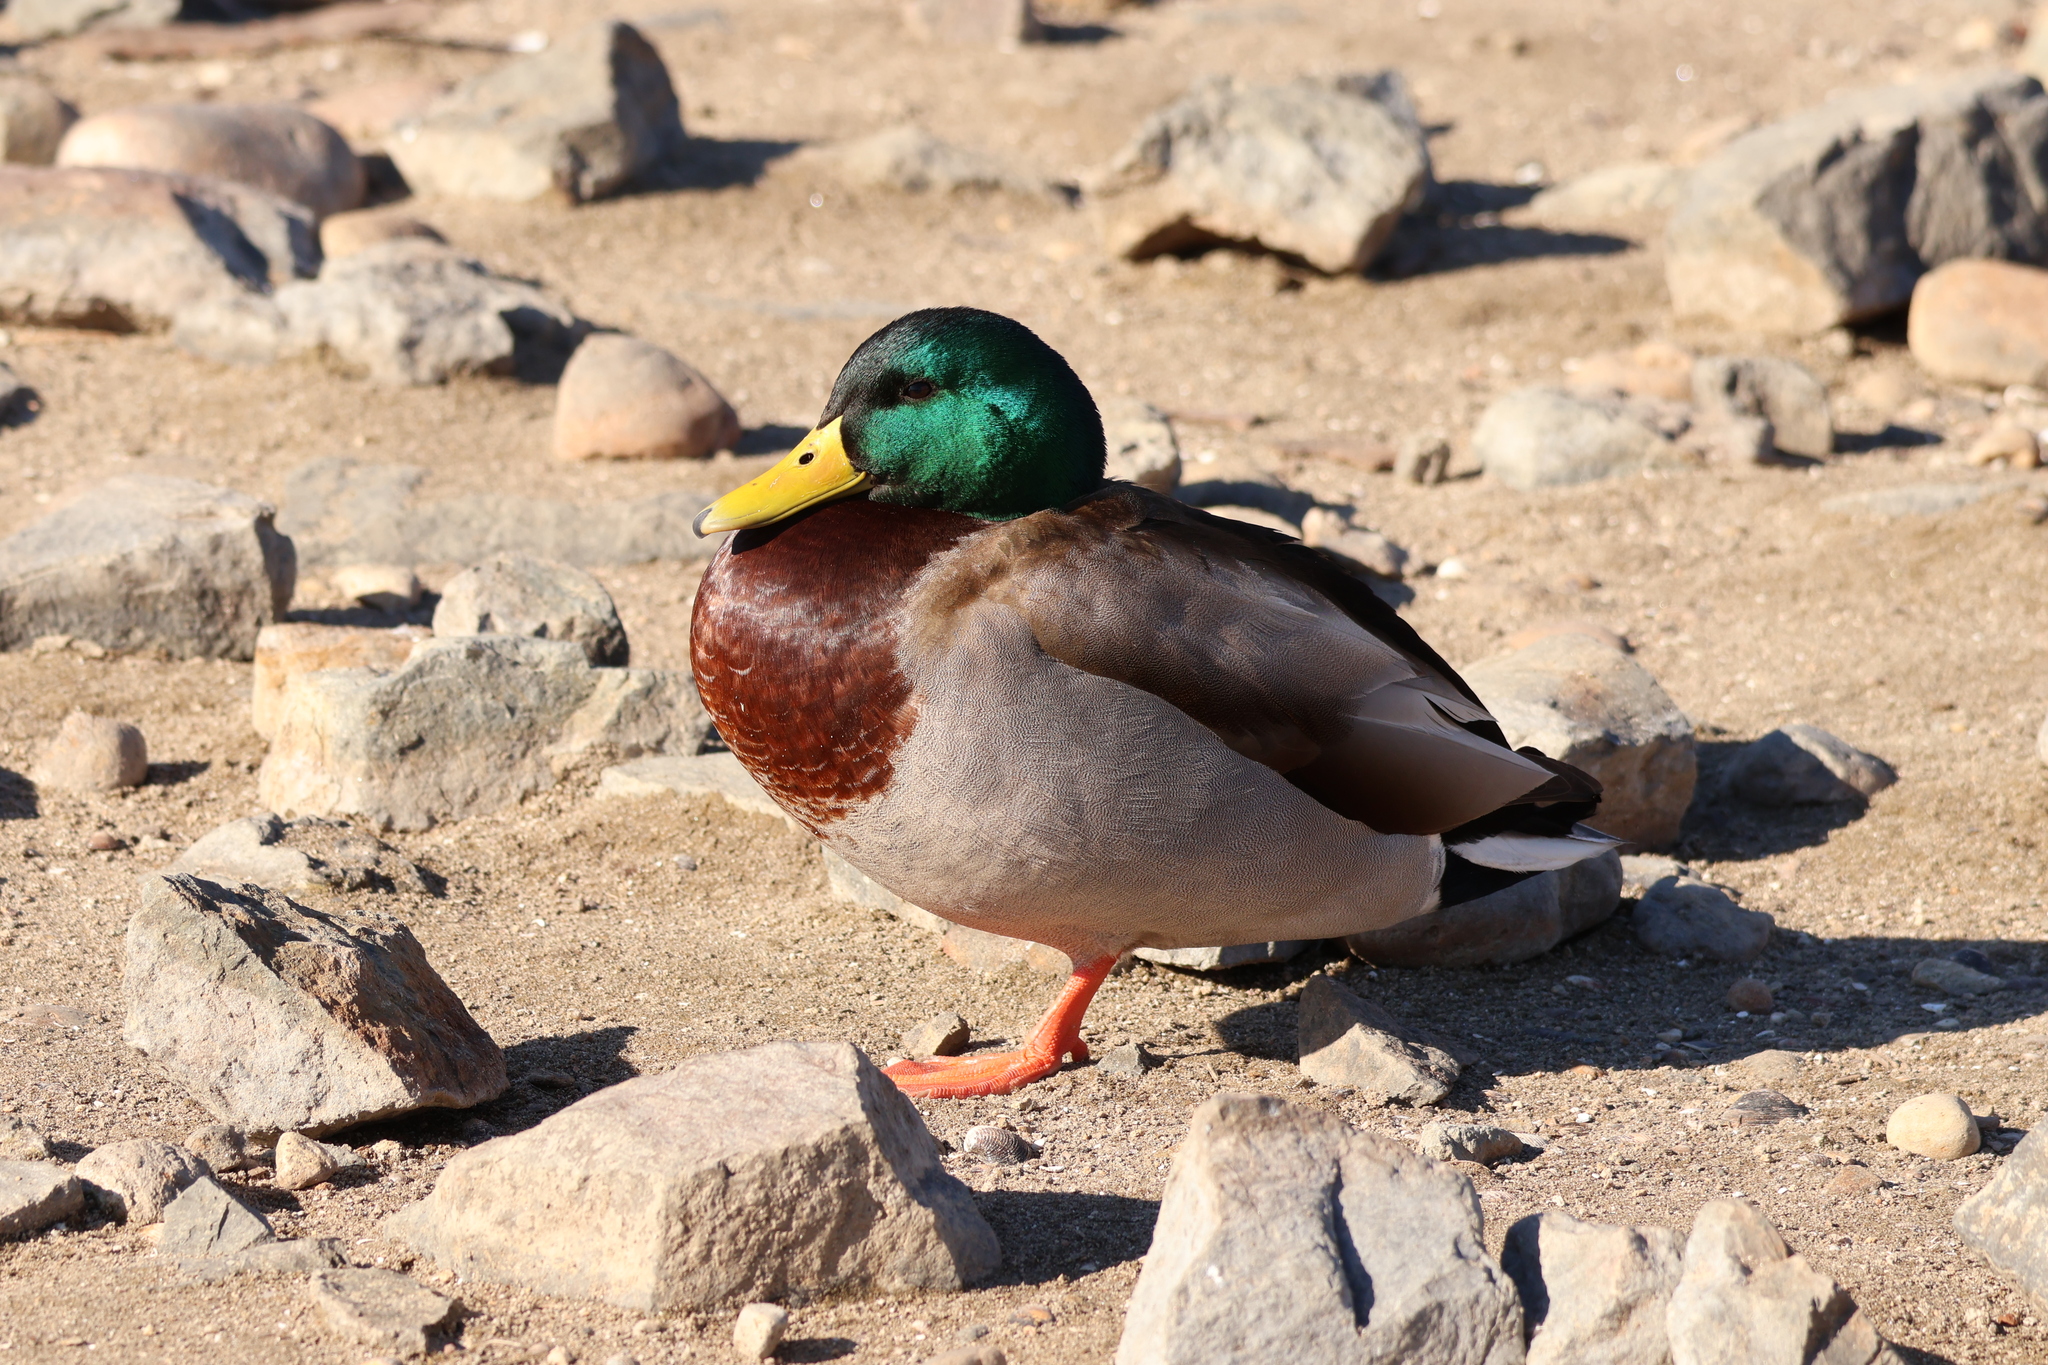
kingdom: Animalia
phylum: Chordata
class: Aves
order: Anseriformes
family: Anatidae
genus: Anas
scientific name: Anas platyrhynchos
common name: Mallard
